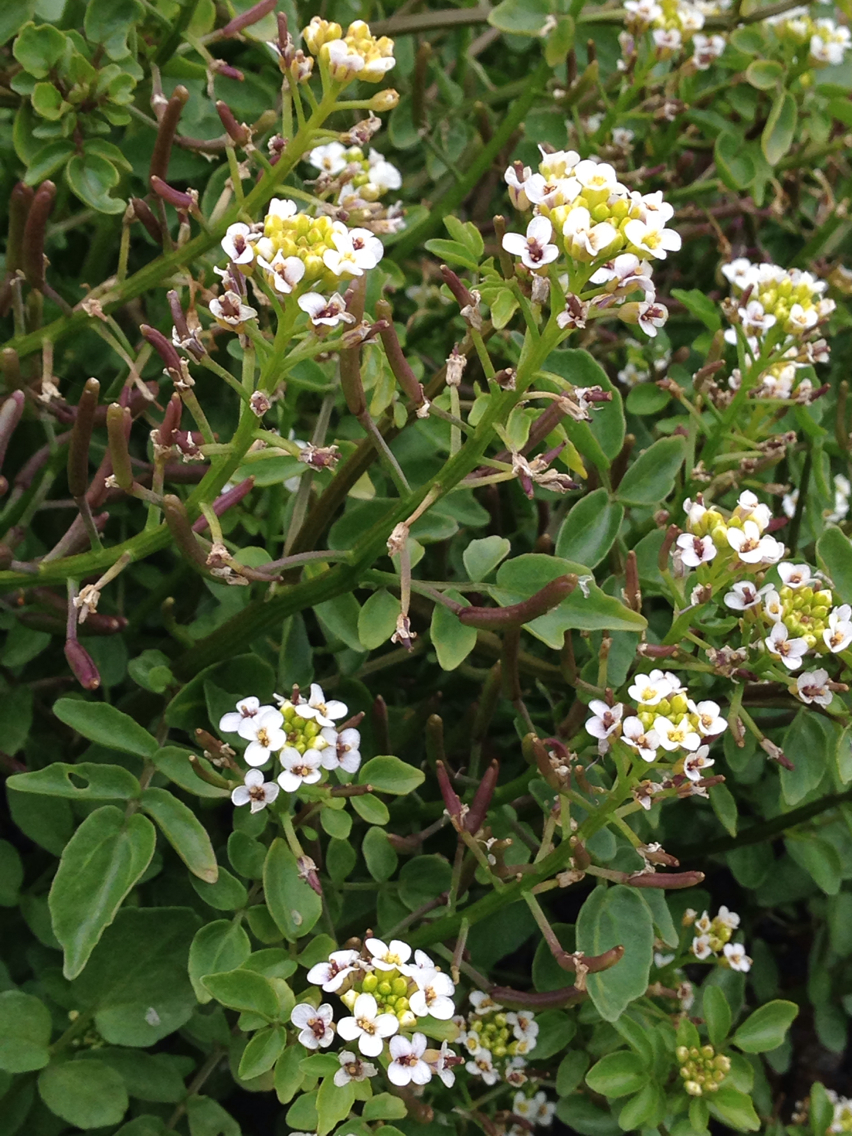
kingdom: Plantae
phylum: Tracheophyta
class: Magnoliopsida
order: Brassicales
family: Brassicaceae
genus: Nasturtium
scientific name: Nasturtium officinale
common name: Watercress
